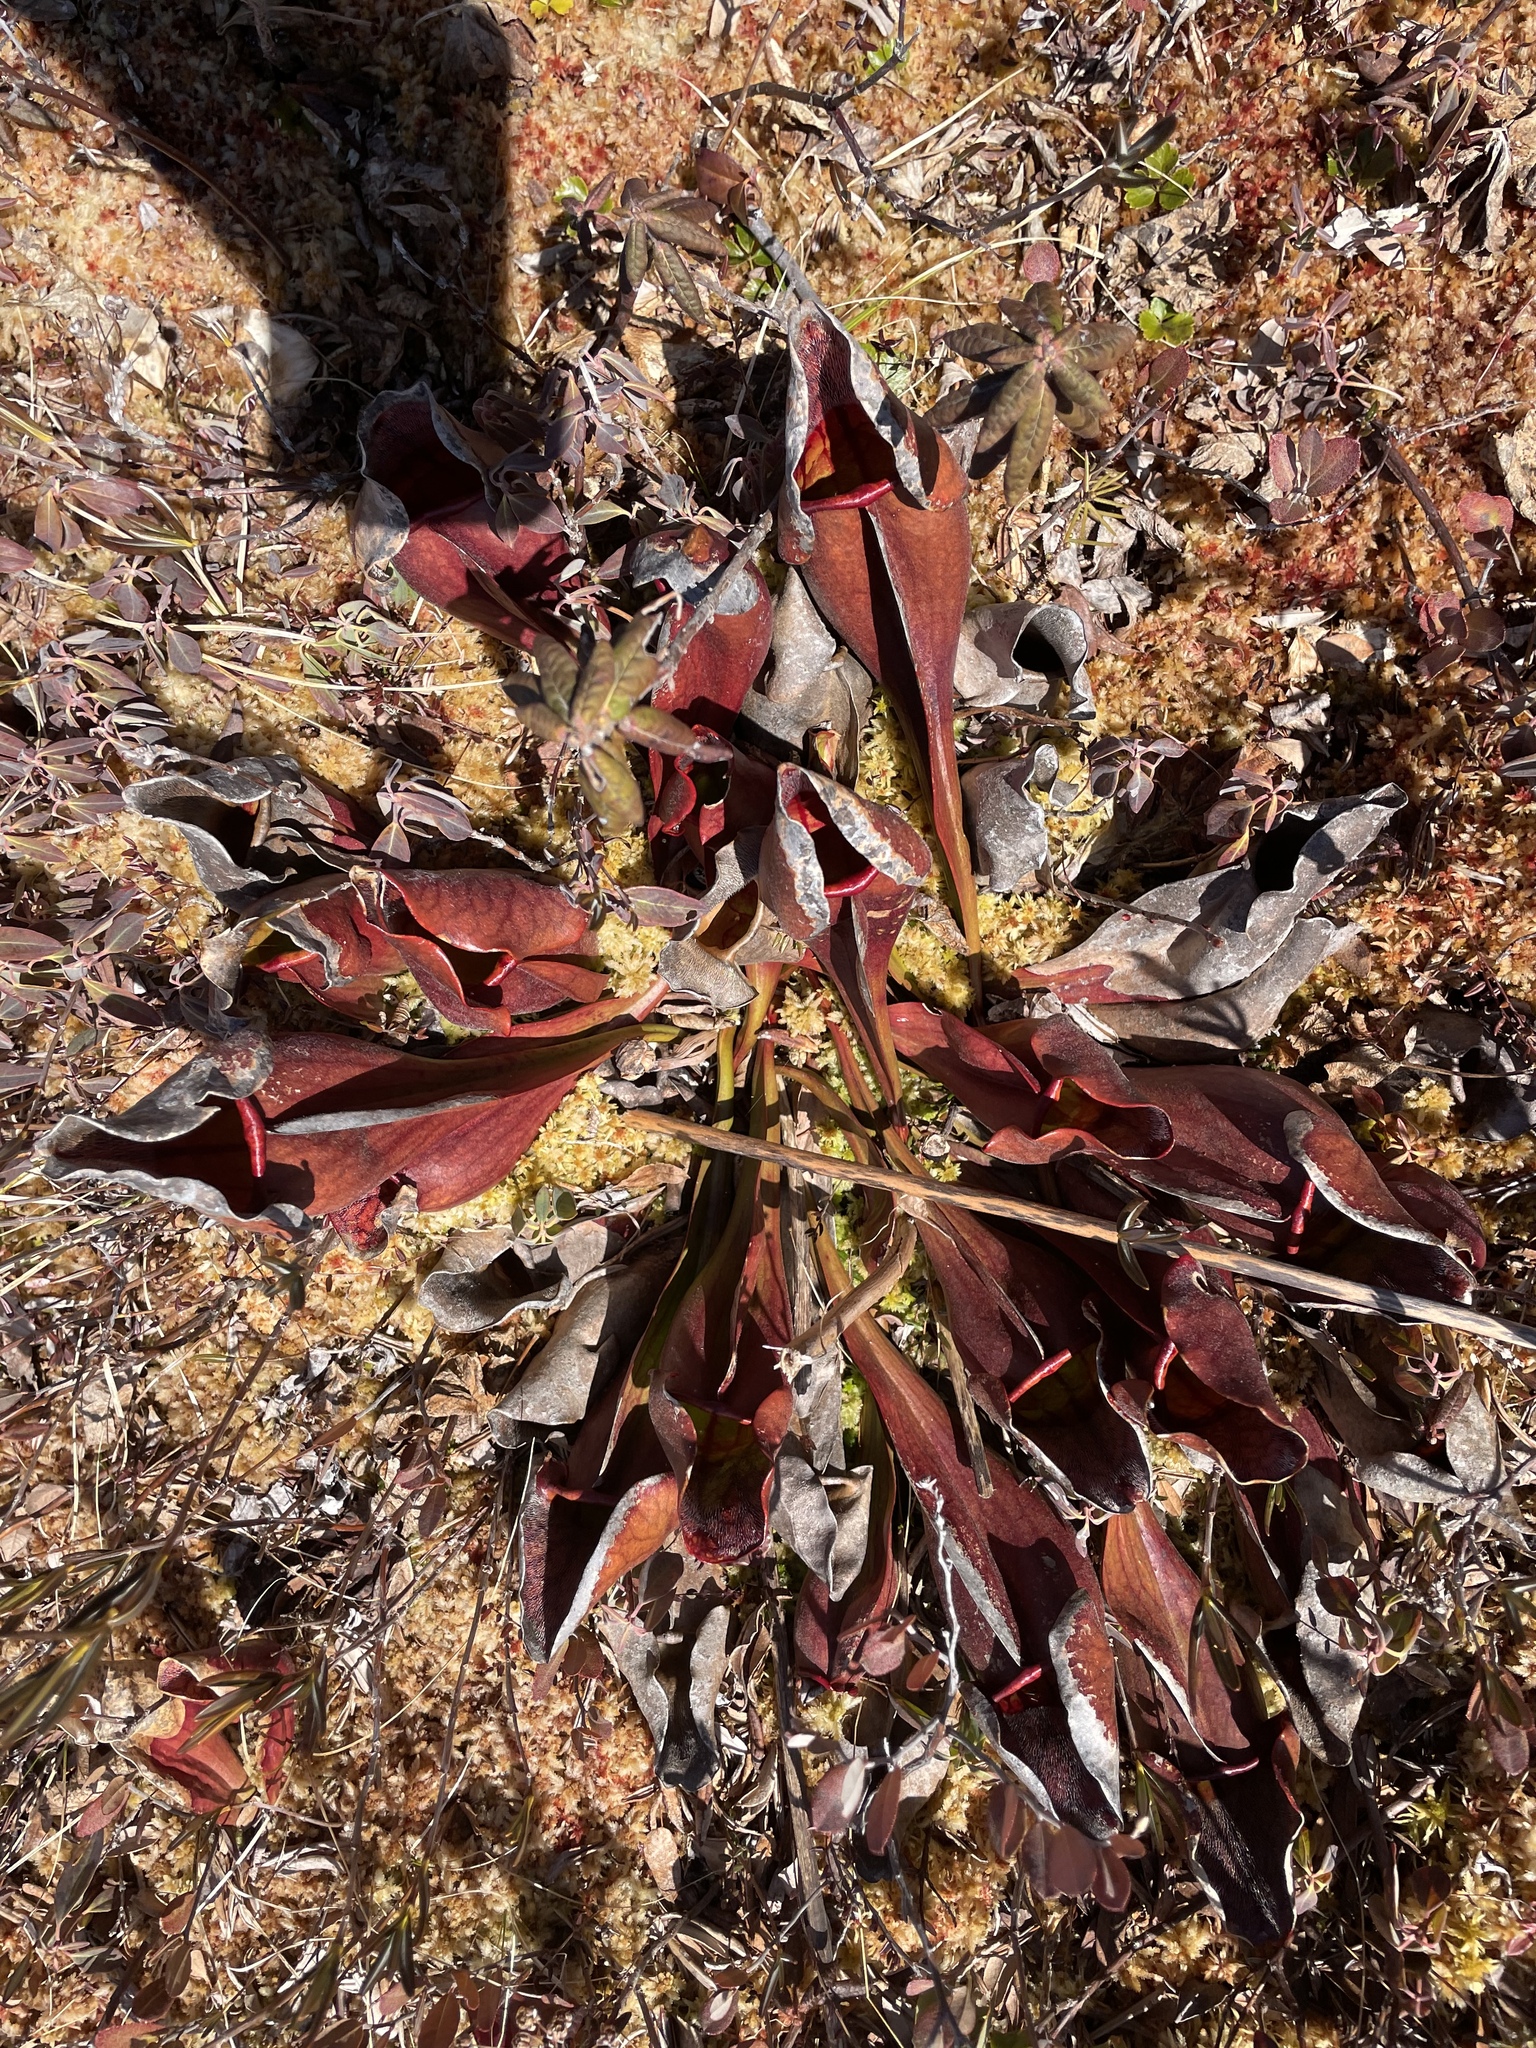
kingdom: Plantae
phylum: Tracheophyta
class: Magnoliopsida
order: Ericales
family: Sarraceniaceae
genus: Sarracenia
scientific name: Sarracenia purpurea
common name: Pitcherplant
